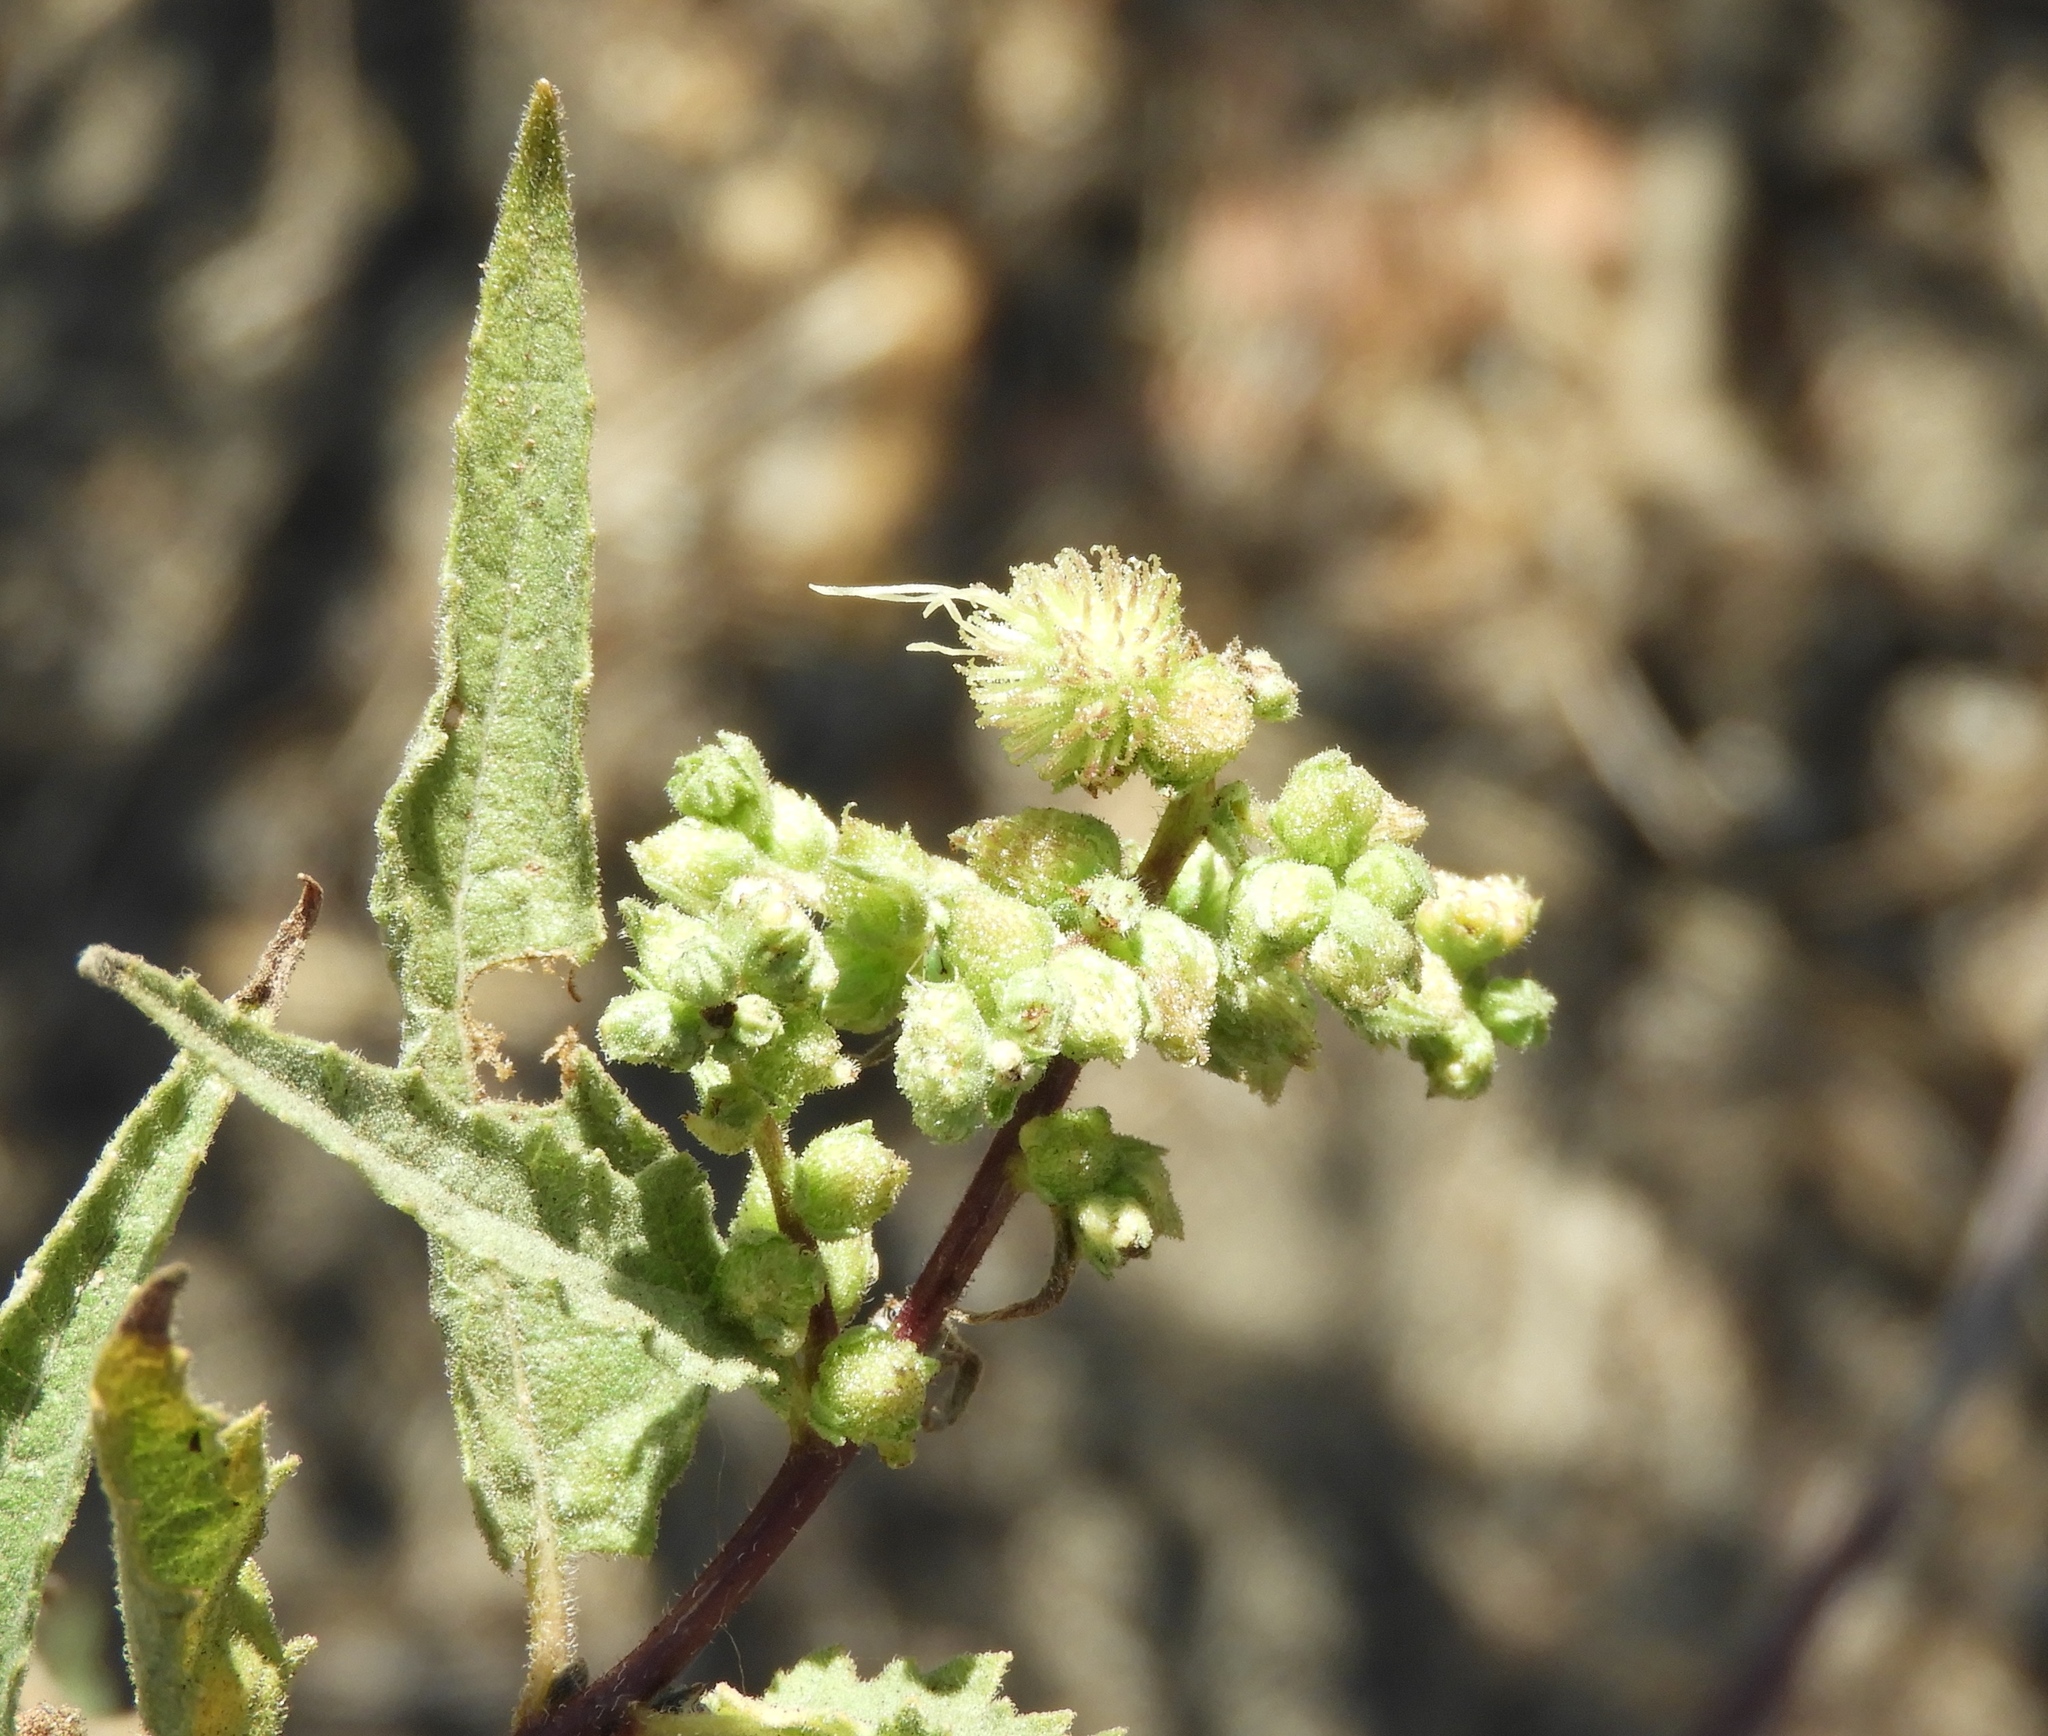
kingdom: Plantae
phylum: Tracheophyta
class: Magnoliopsida
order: Asterales
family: Asteraceae
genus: Ambrosia
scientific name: Ambrosia ambrosioides
